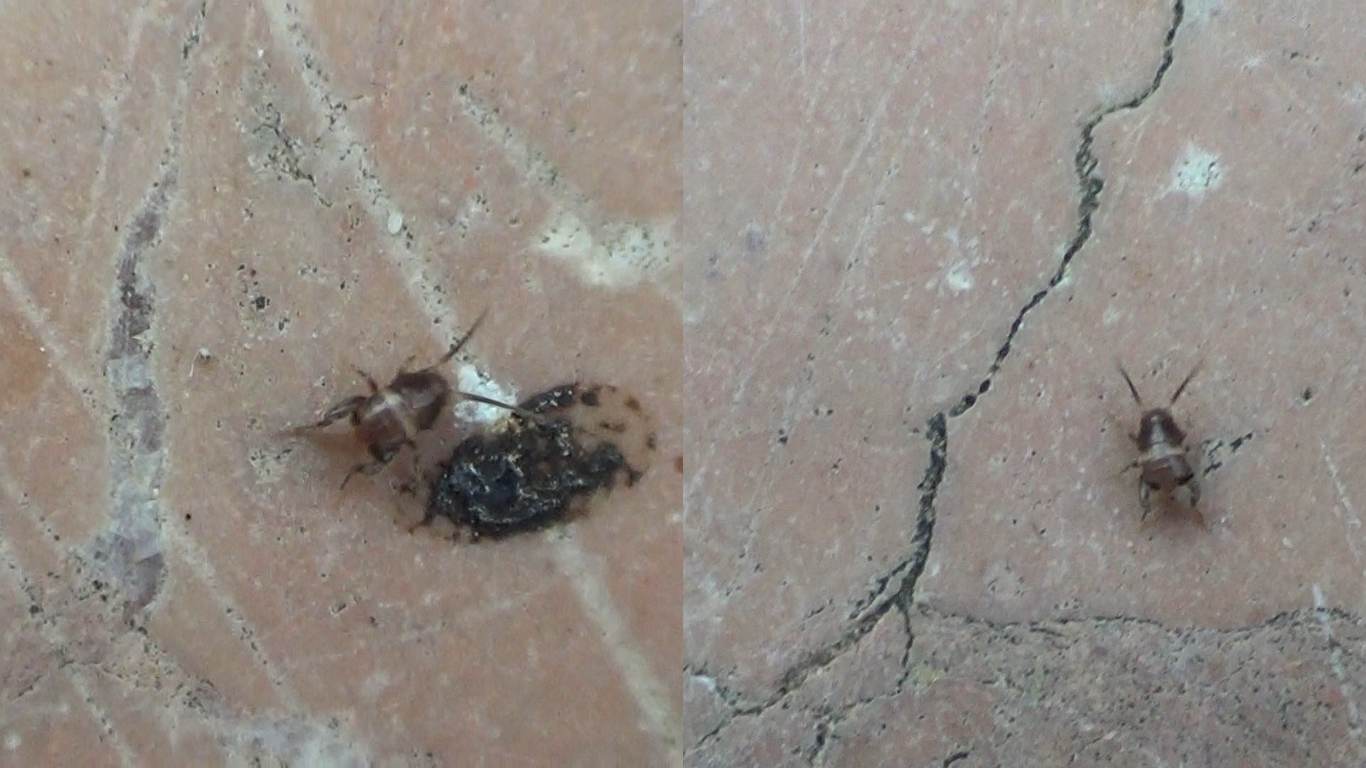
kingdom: Animalia
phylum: Arthropoda
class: Insecta
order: Orthoptera
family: Myrmecophilidae
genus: Myrmecophilus
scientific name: Myrmecophilus ochraceus
